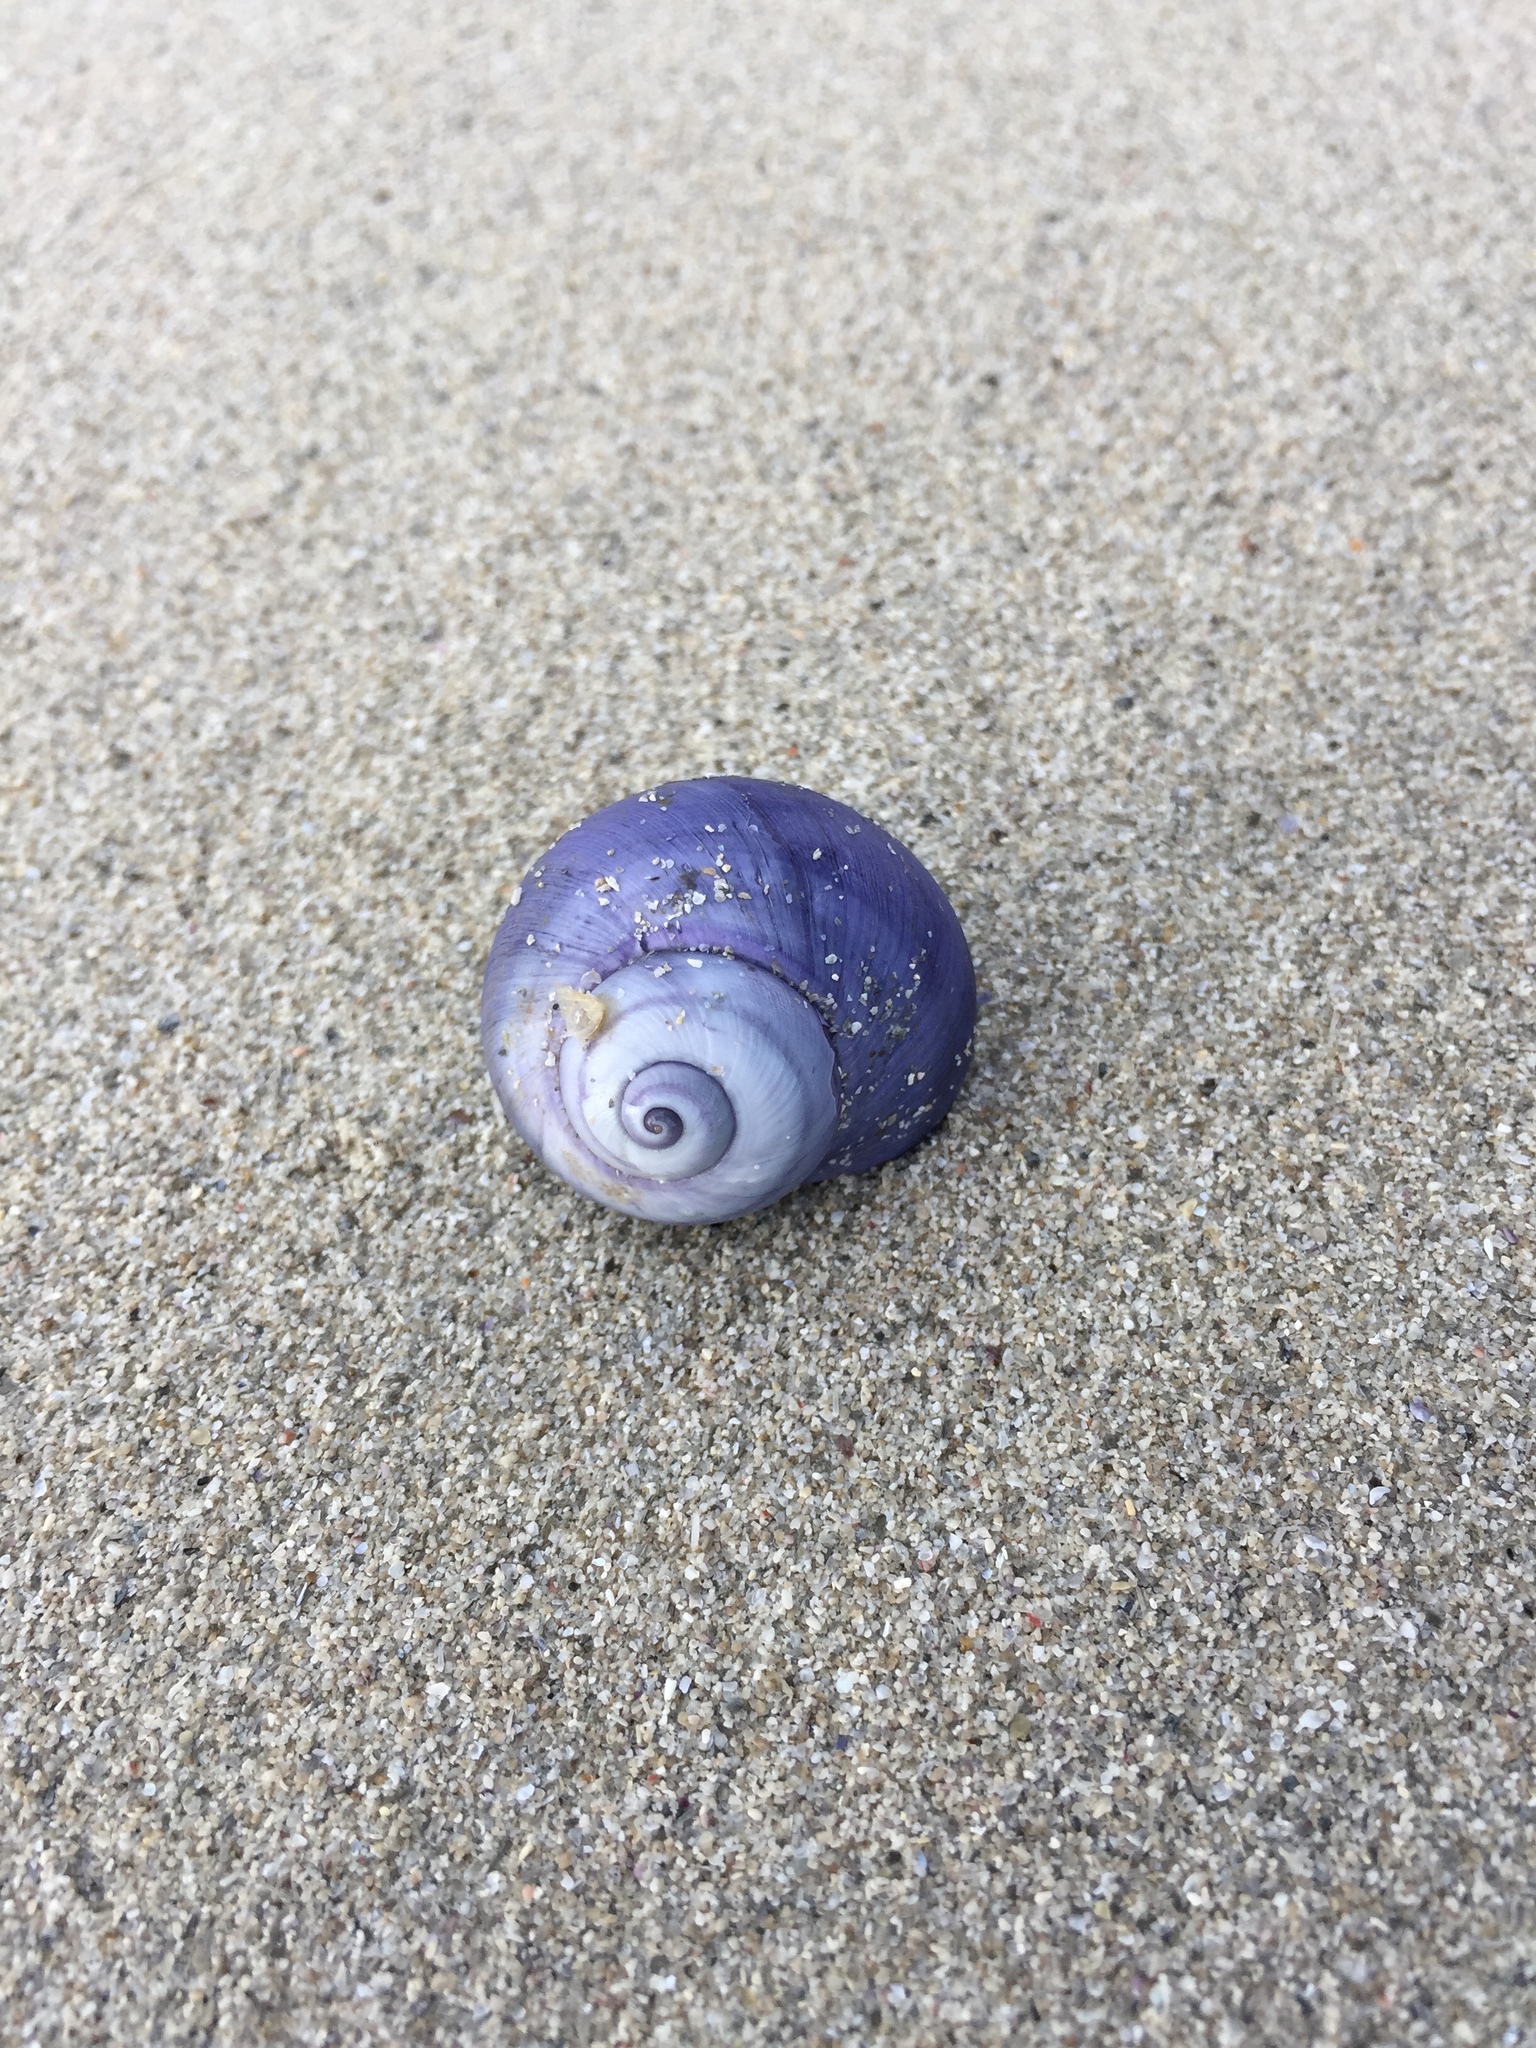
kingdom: Animalia
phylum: Mollusca
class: Gastropoda
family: Epitoniidae
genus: Janthina
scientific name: Janthina janthina
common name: Common janthina
